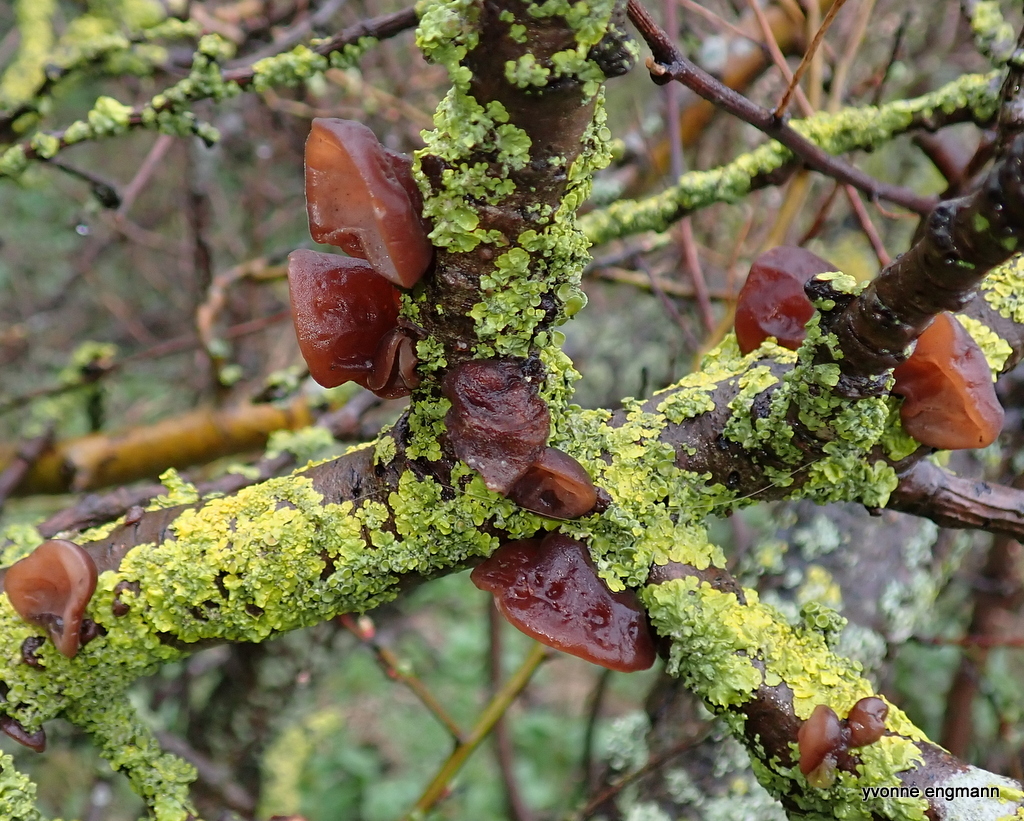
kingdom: Fungi
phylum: Basidiomycota
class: Agaricomycetes
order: Auriculariales
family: Auriculariaceae
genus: Auricularia
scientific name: Auricularia auricula-judae
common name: Jelly ear
